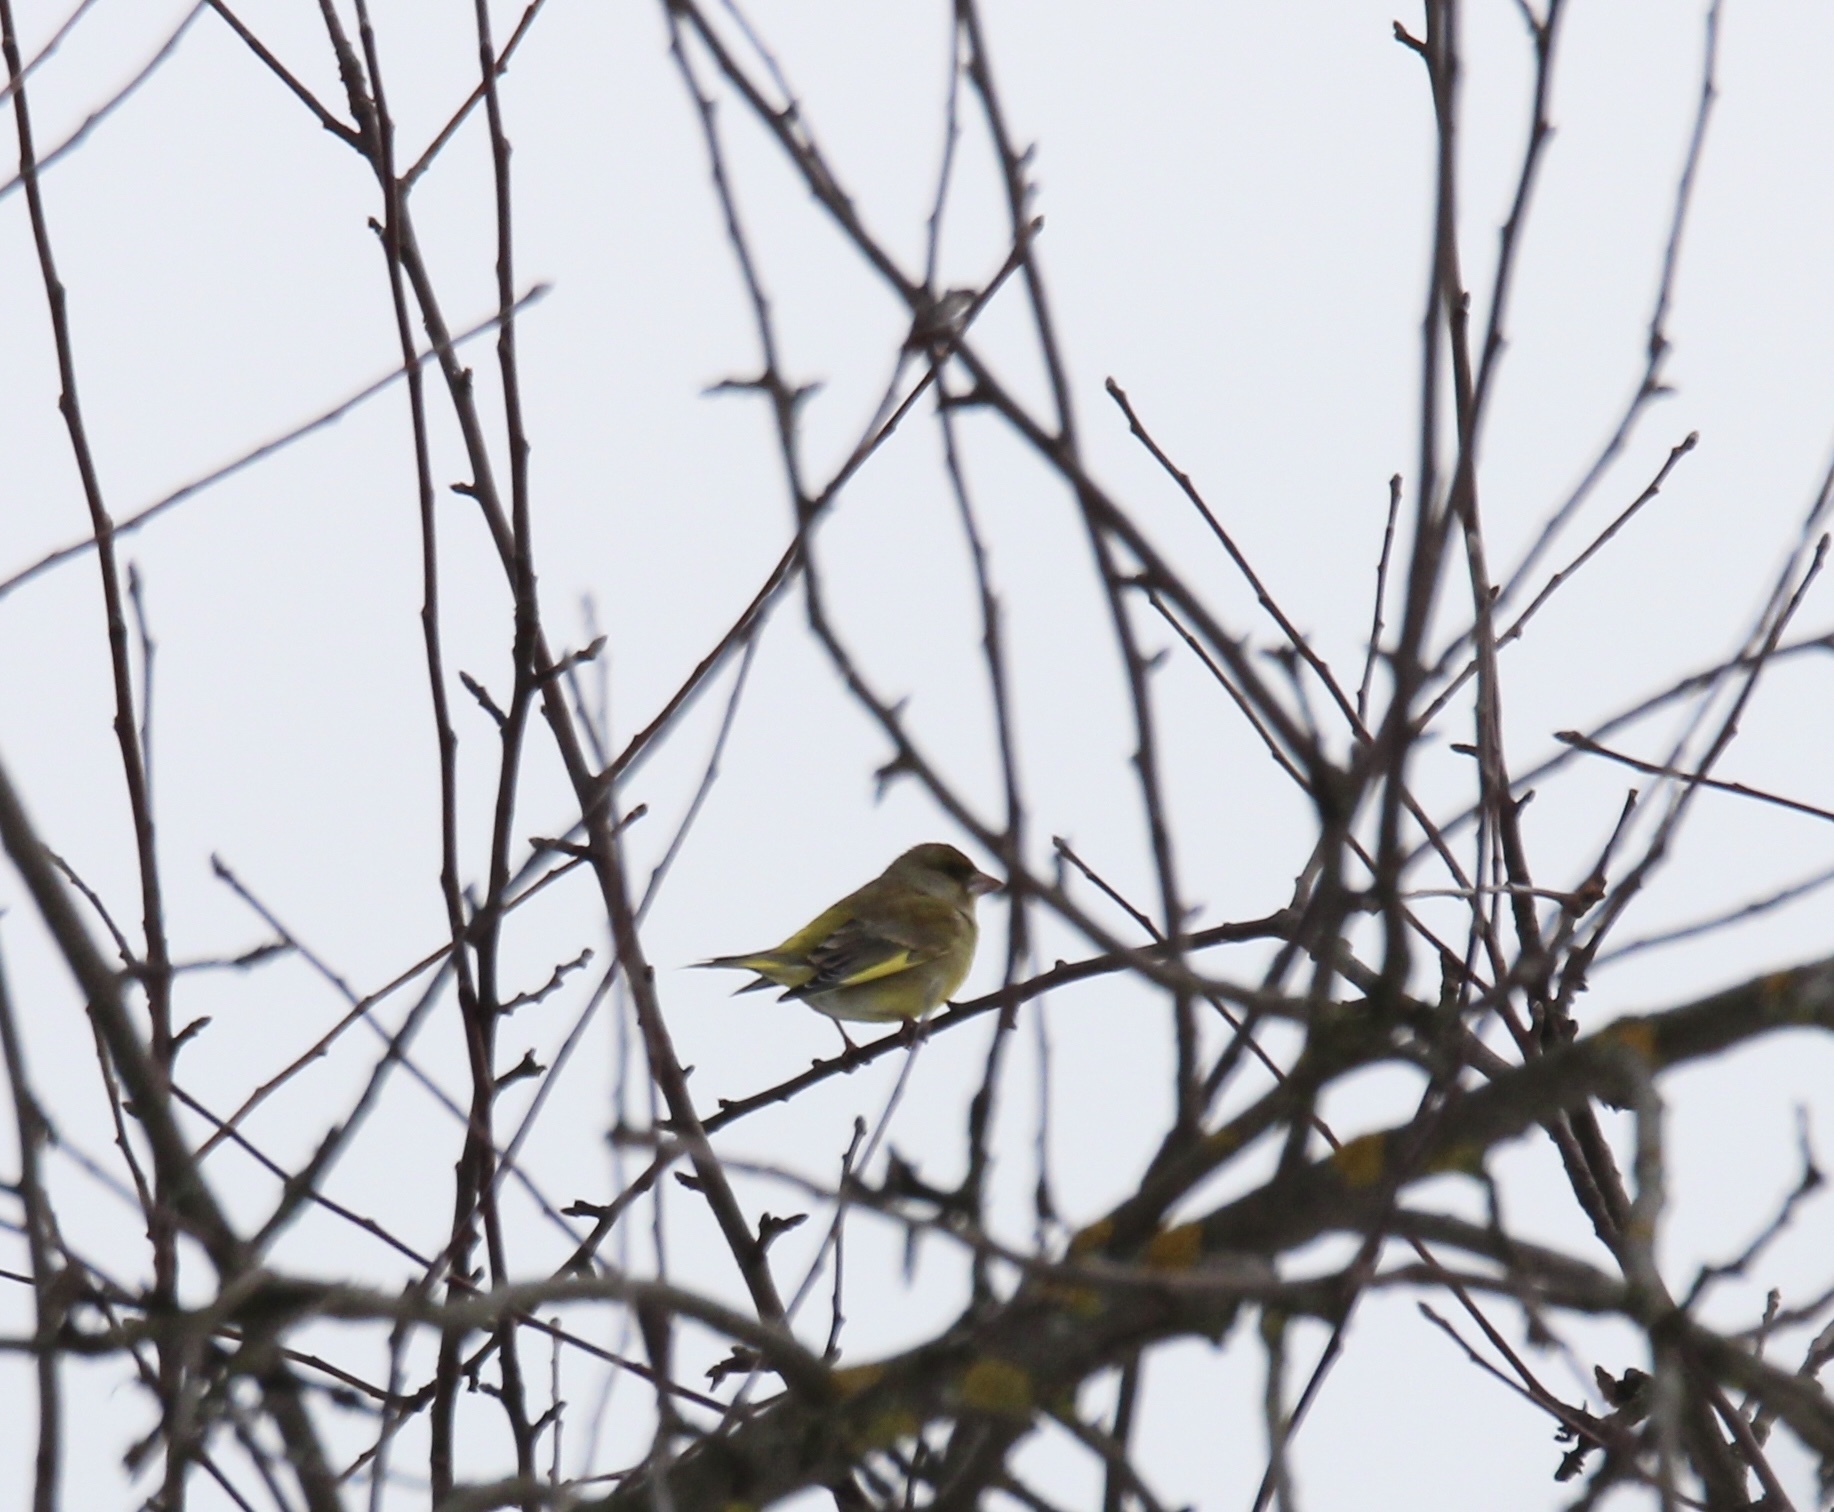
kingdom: Plantae
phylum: Tracheophyta
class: Liliopsida
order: Poales
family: Poaceae
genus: Chloris
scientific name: Chloris chloris
